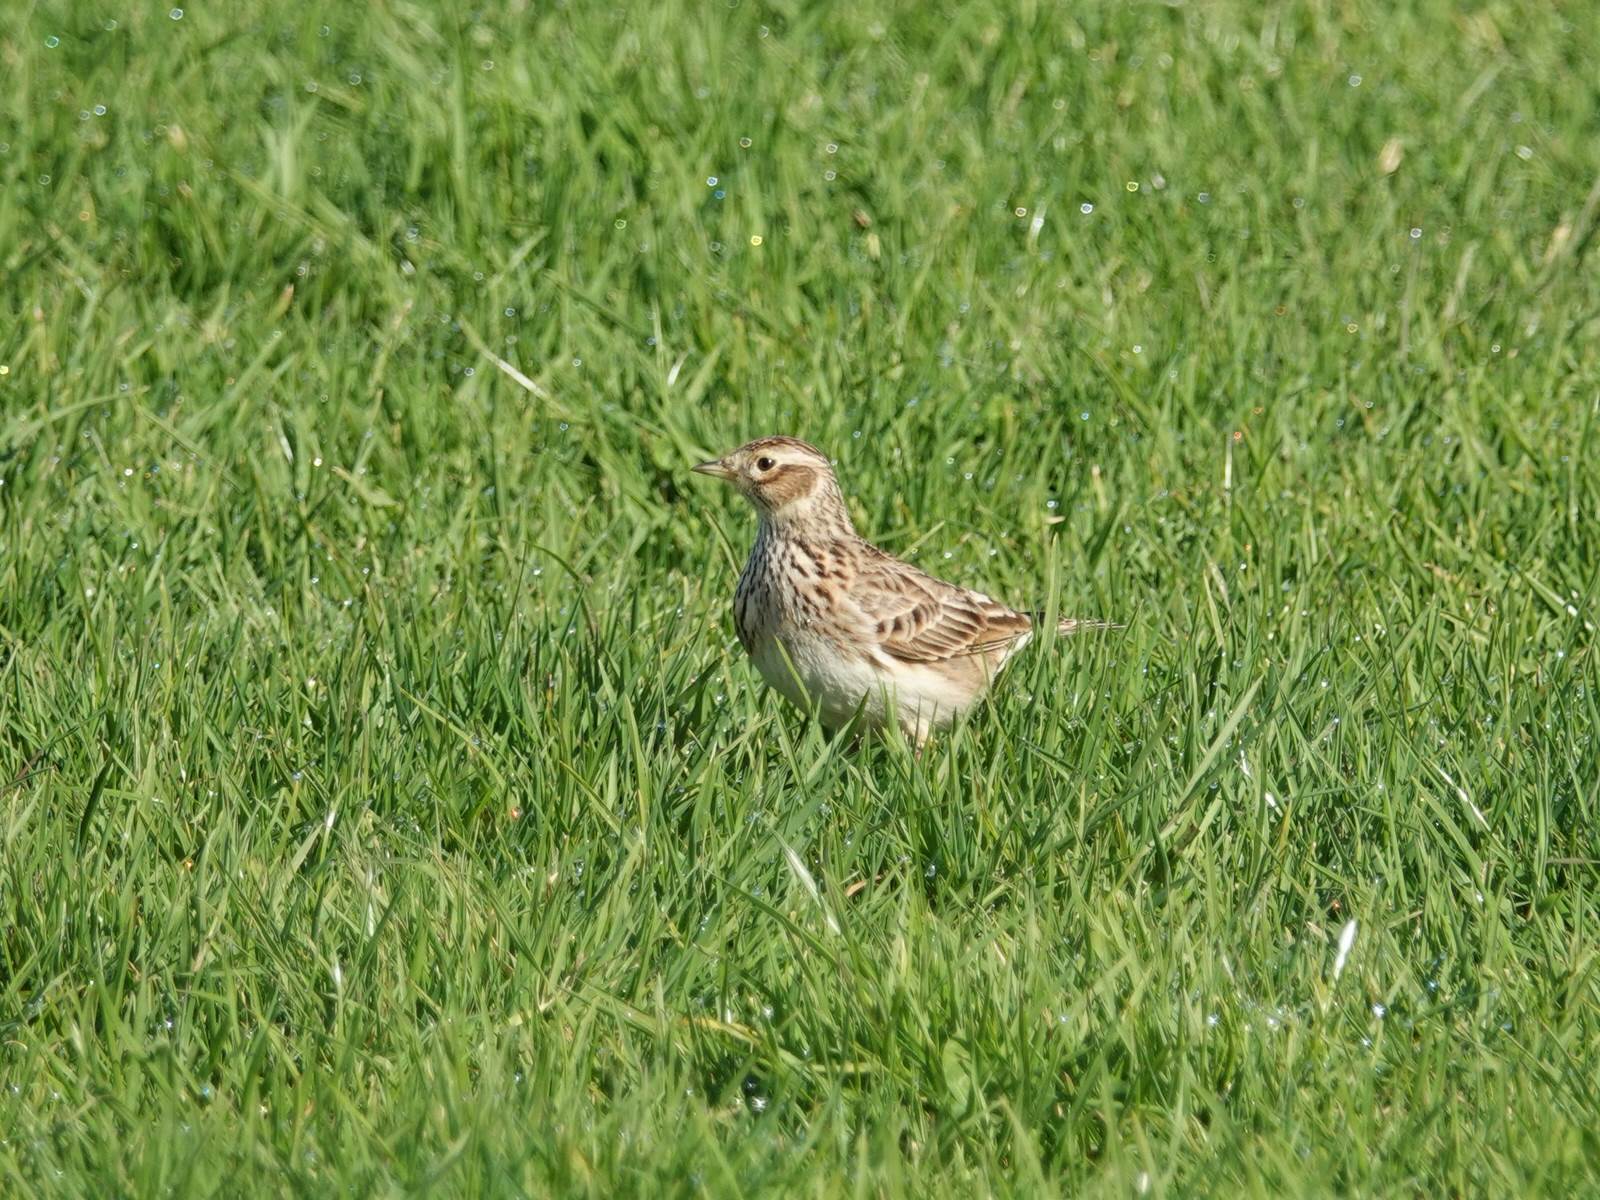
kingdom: Animalia
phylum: Chordata
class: Aves
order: Passeriformes
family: Alaudidae
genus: Alauda
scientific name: Alauda arvensis
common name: Eurasian skylark
